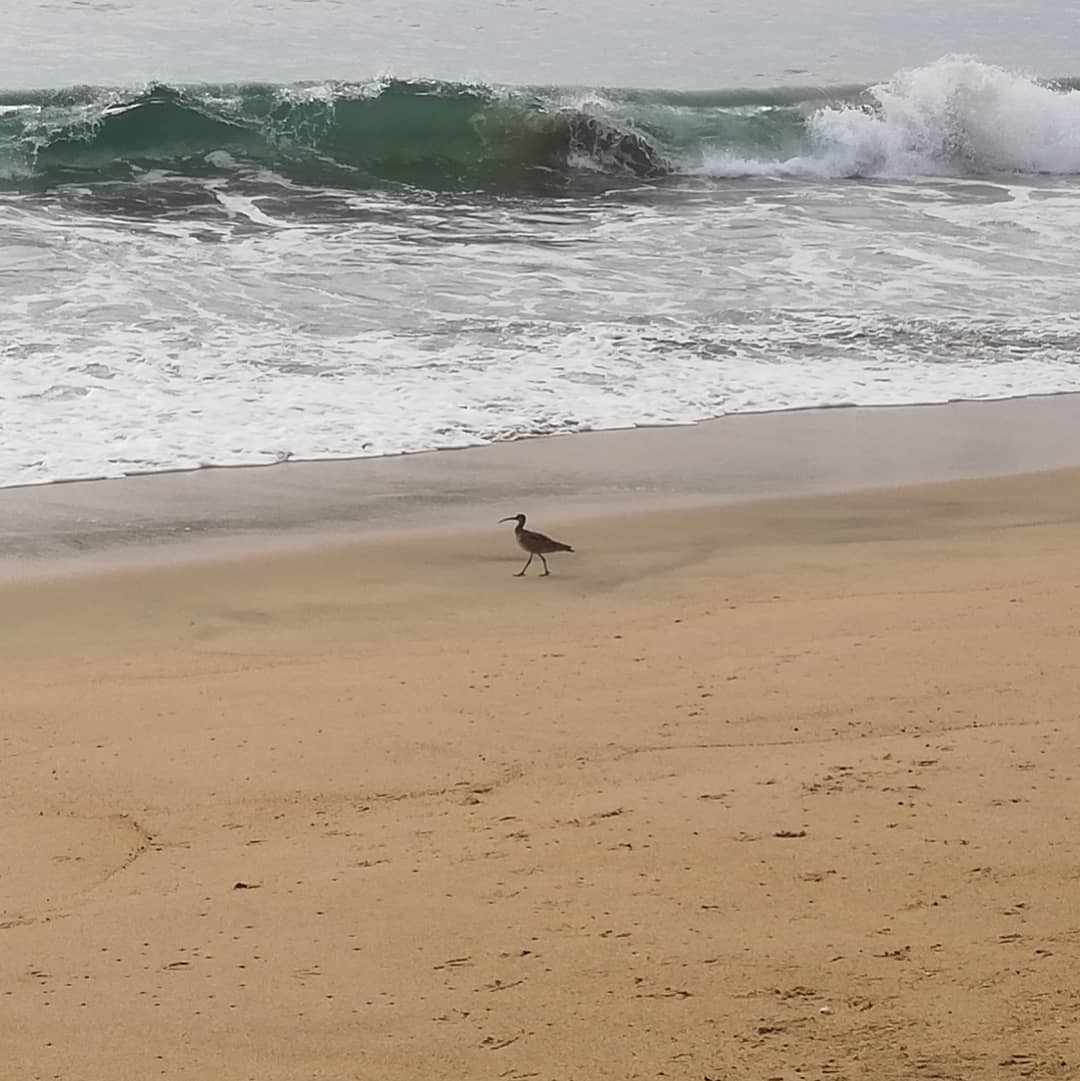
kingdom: Animalia
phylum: Chordata
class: Aves
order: Charadriiformes
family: Scolopacidae
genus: Numenius
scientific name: Numenius hudsonicus
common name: Hudsonian whimbrel
